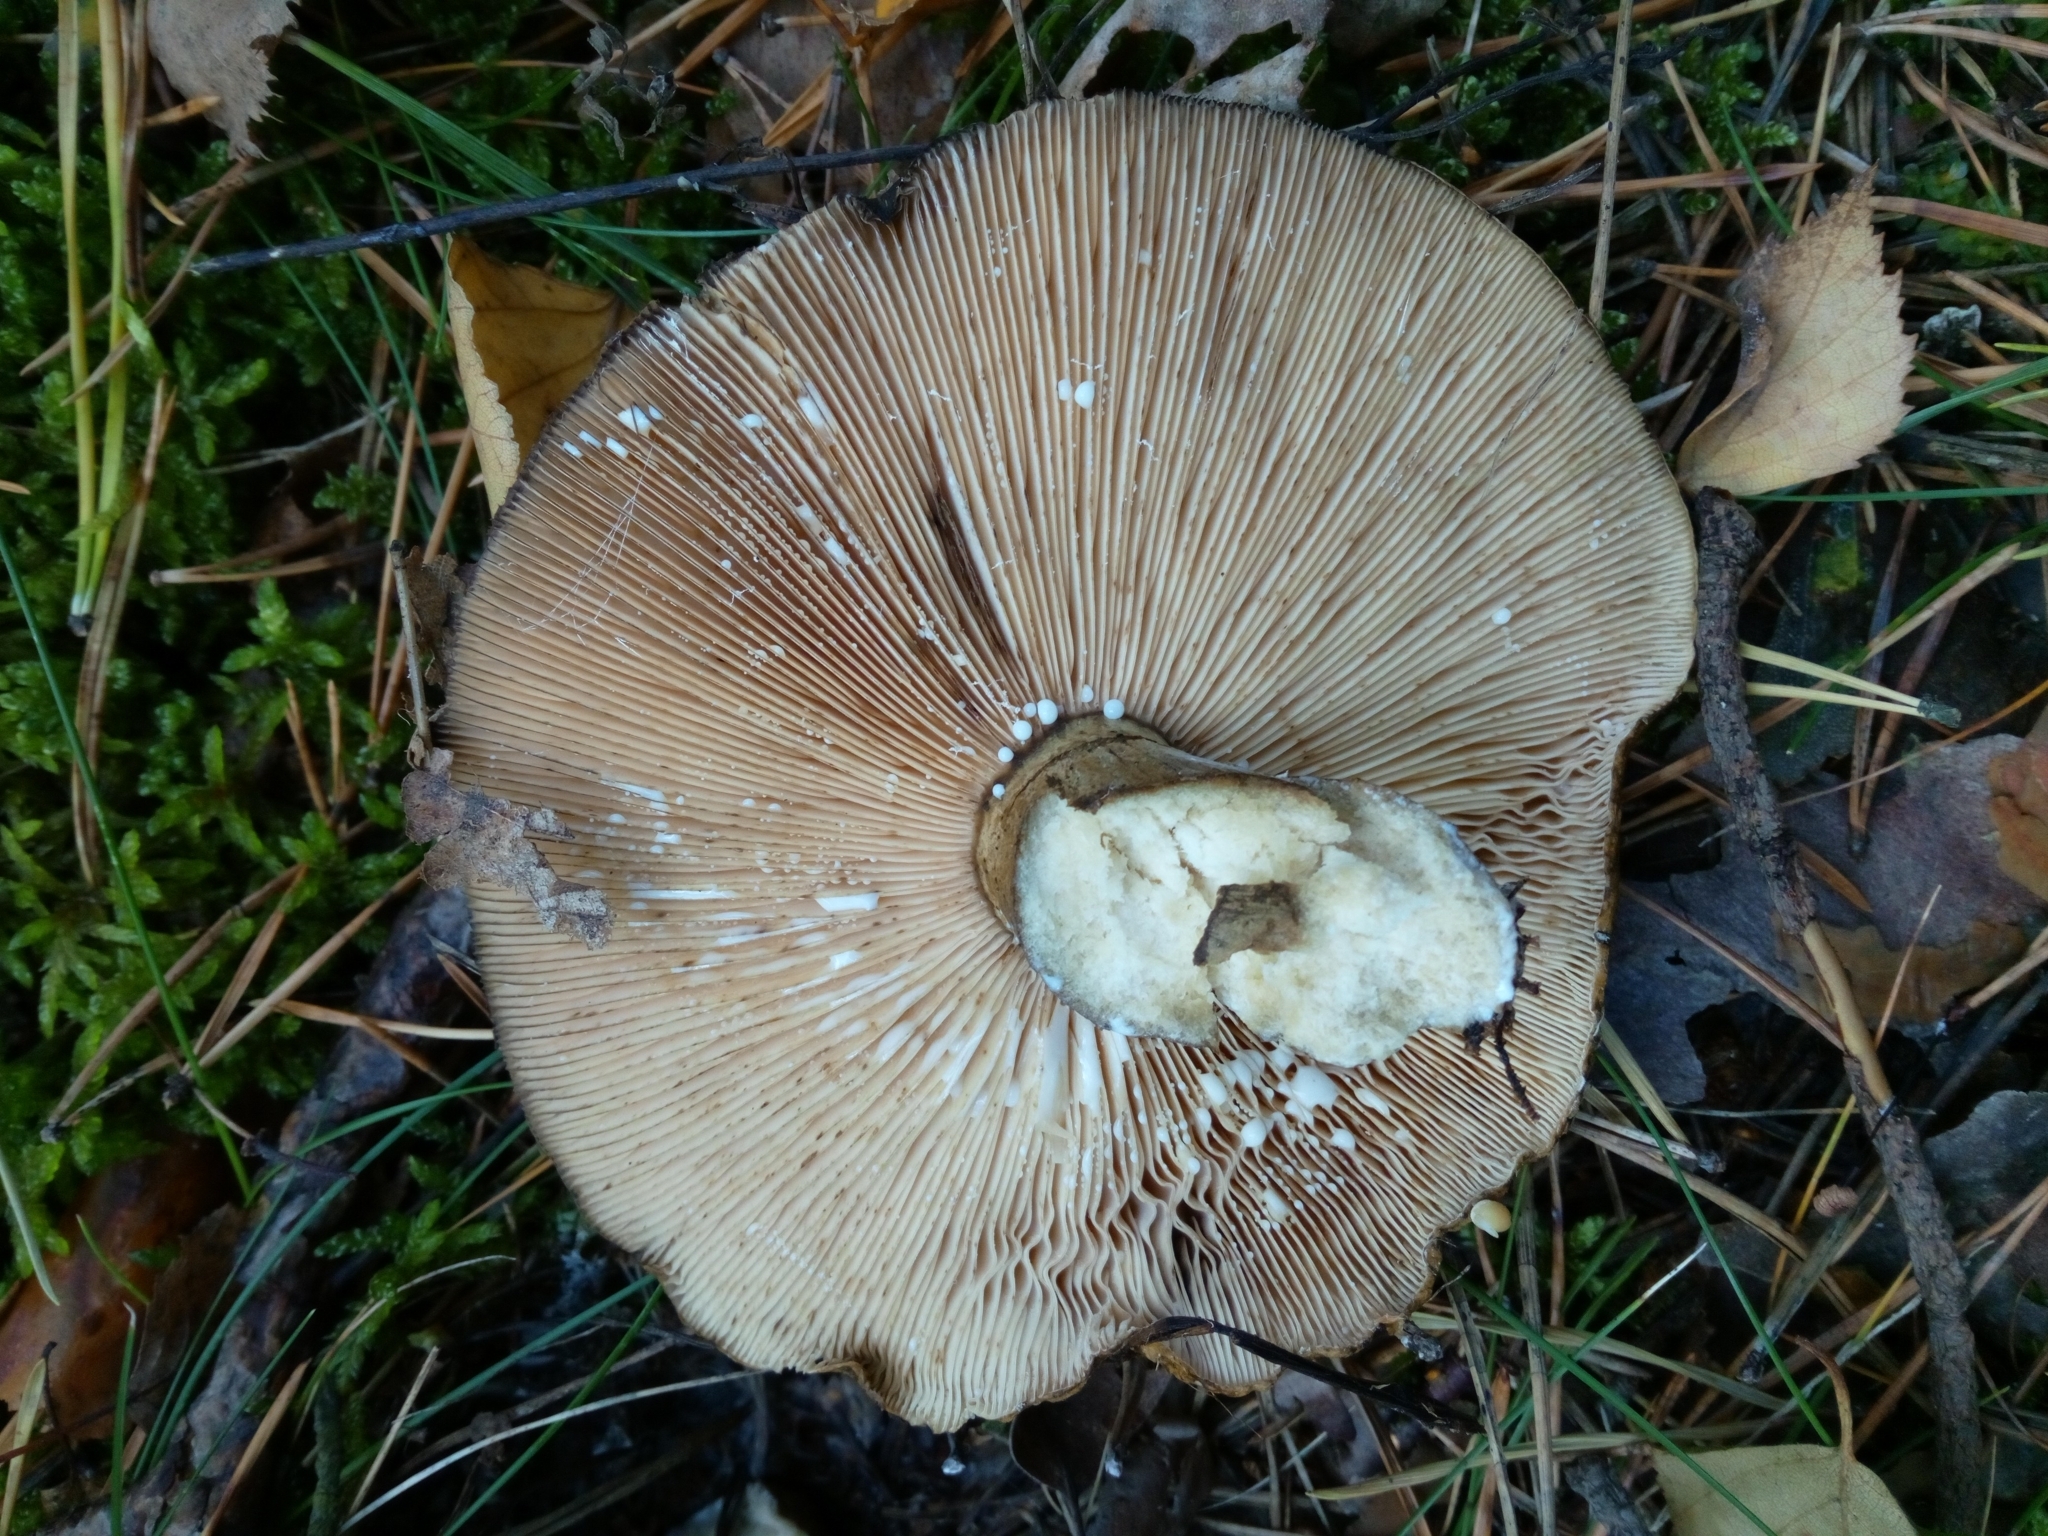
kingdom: Fungi
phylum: Basidiomycota
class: Agaricomycetes
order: Russulales
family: Russulaceae
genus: Lactarius
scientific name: Lactarius turpis
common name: Ugly milk-cap
